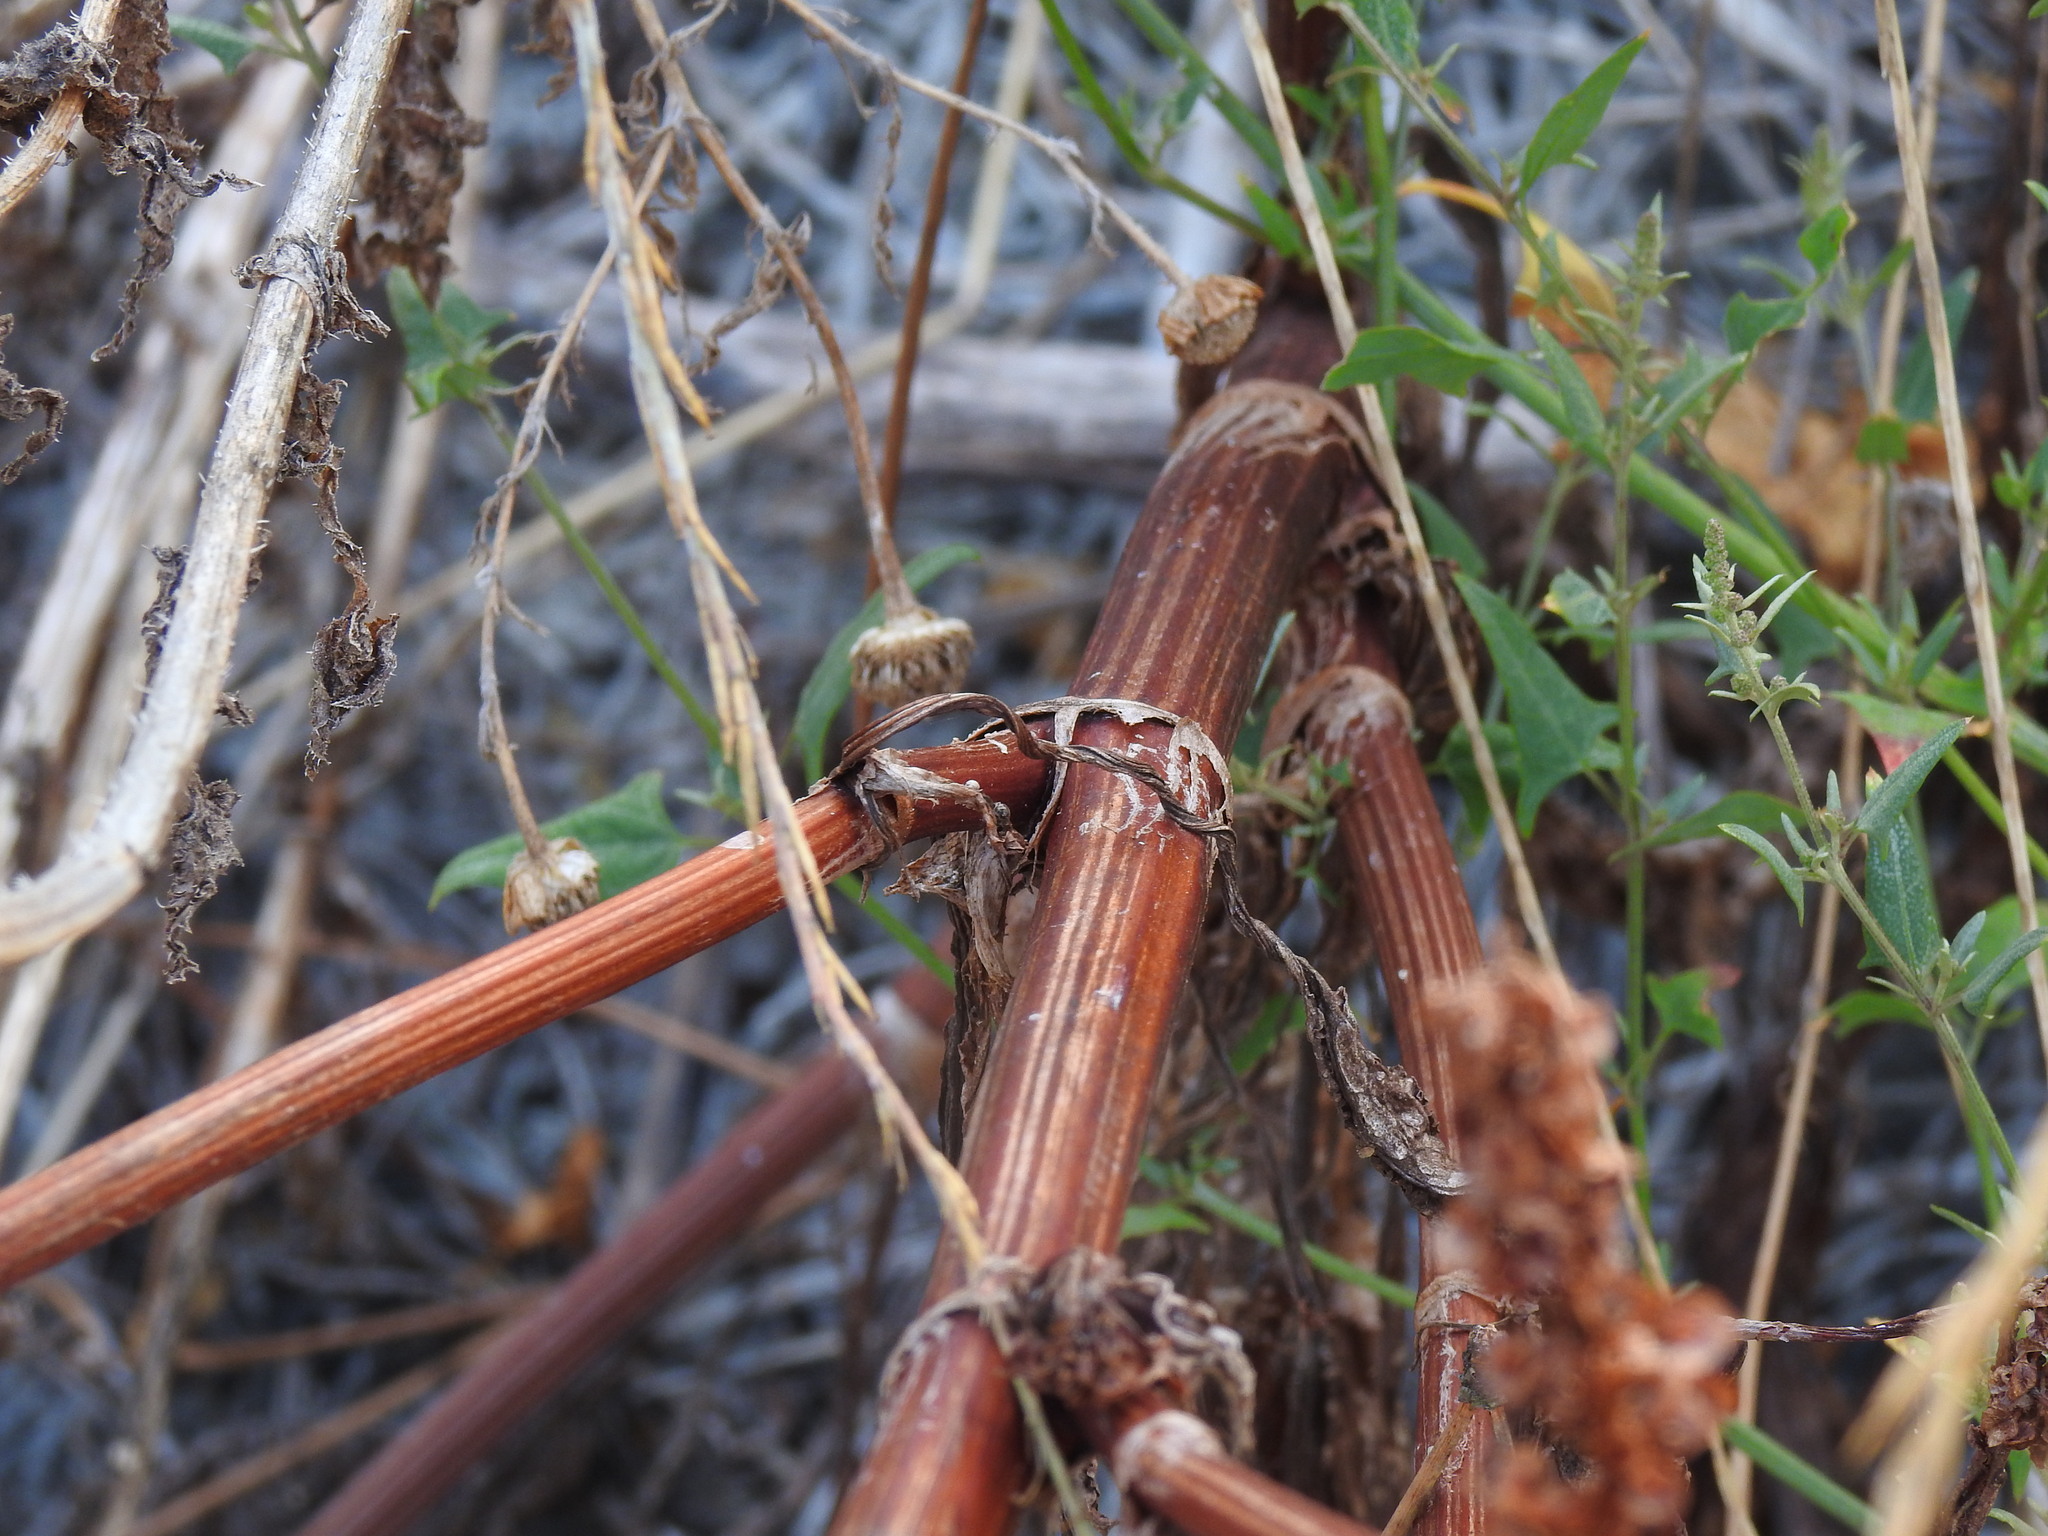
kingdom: Plantae
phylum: Tracheophyta
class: Magnoliopsida
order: Caryophyllales
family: Polygonaceae
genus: Rumex
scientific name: Rumex crispus
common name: Curled dock
